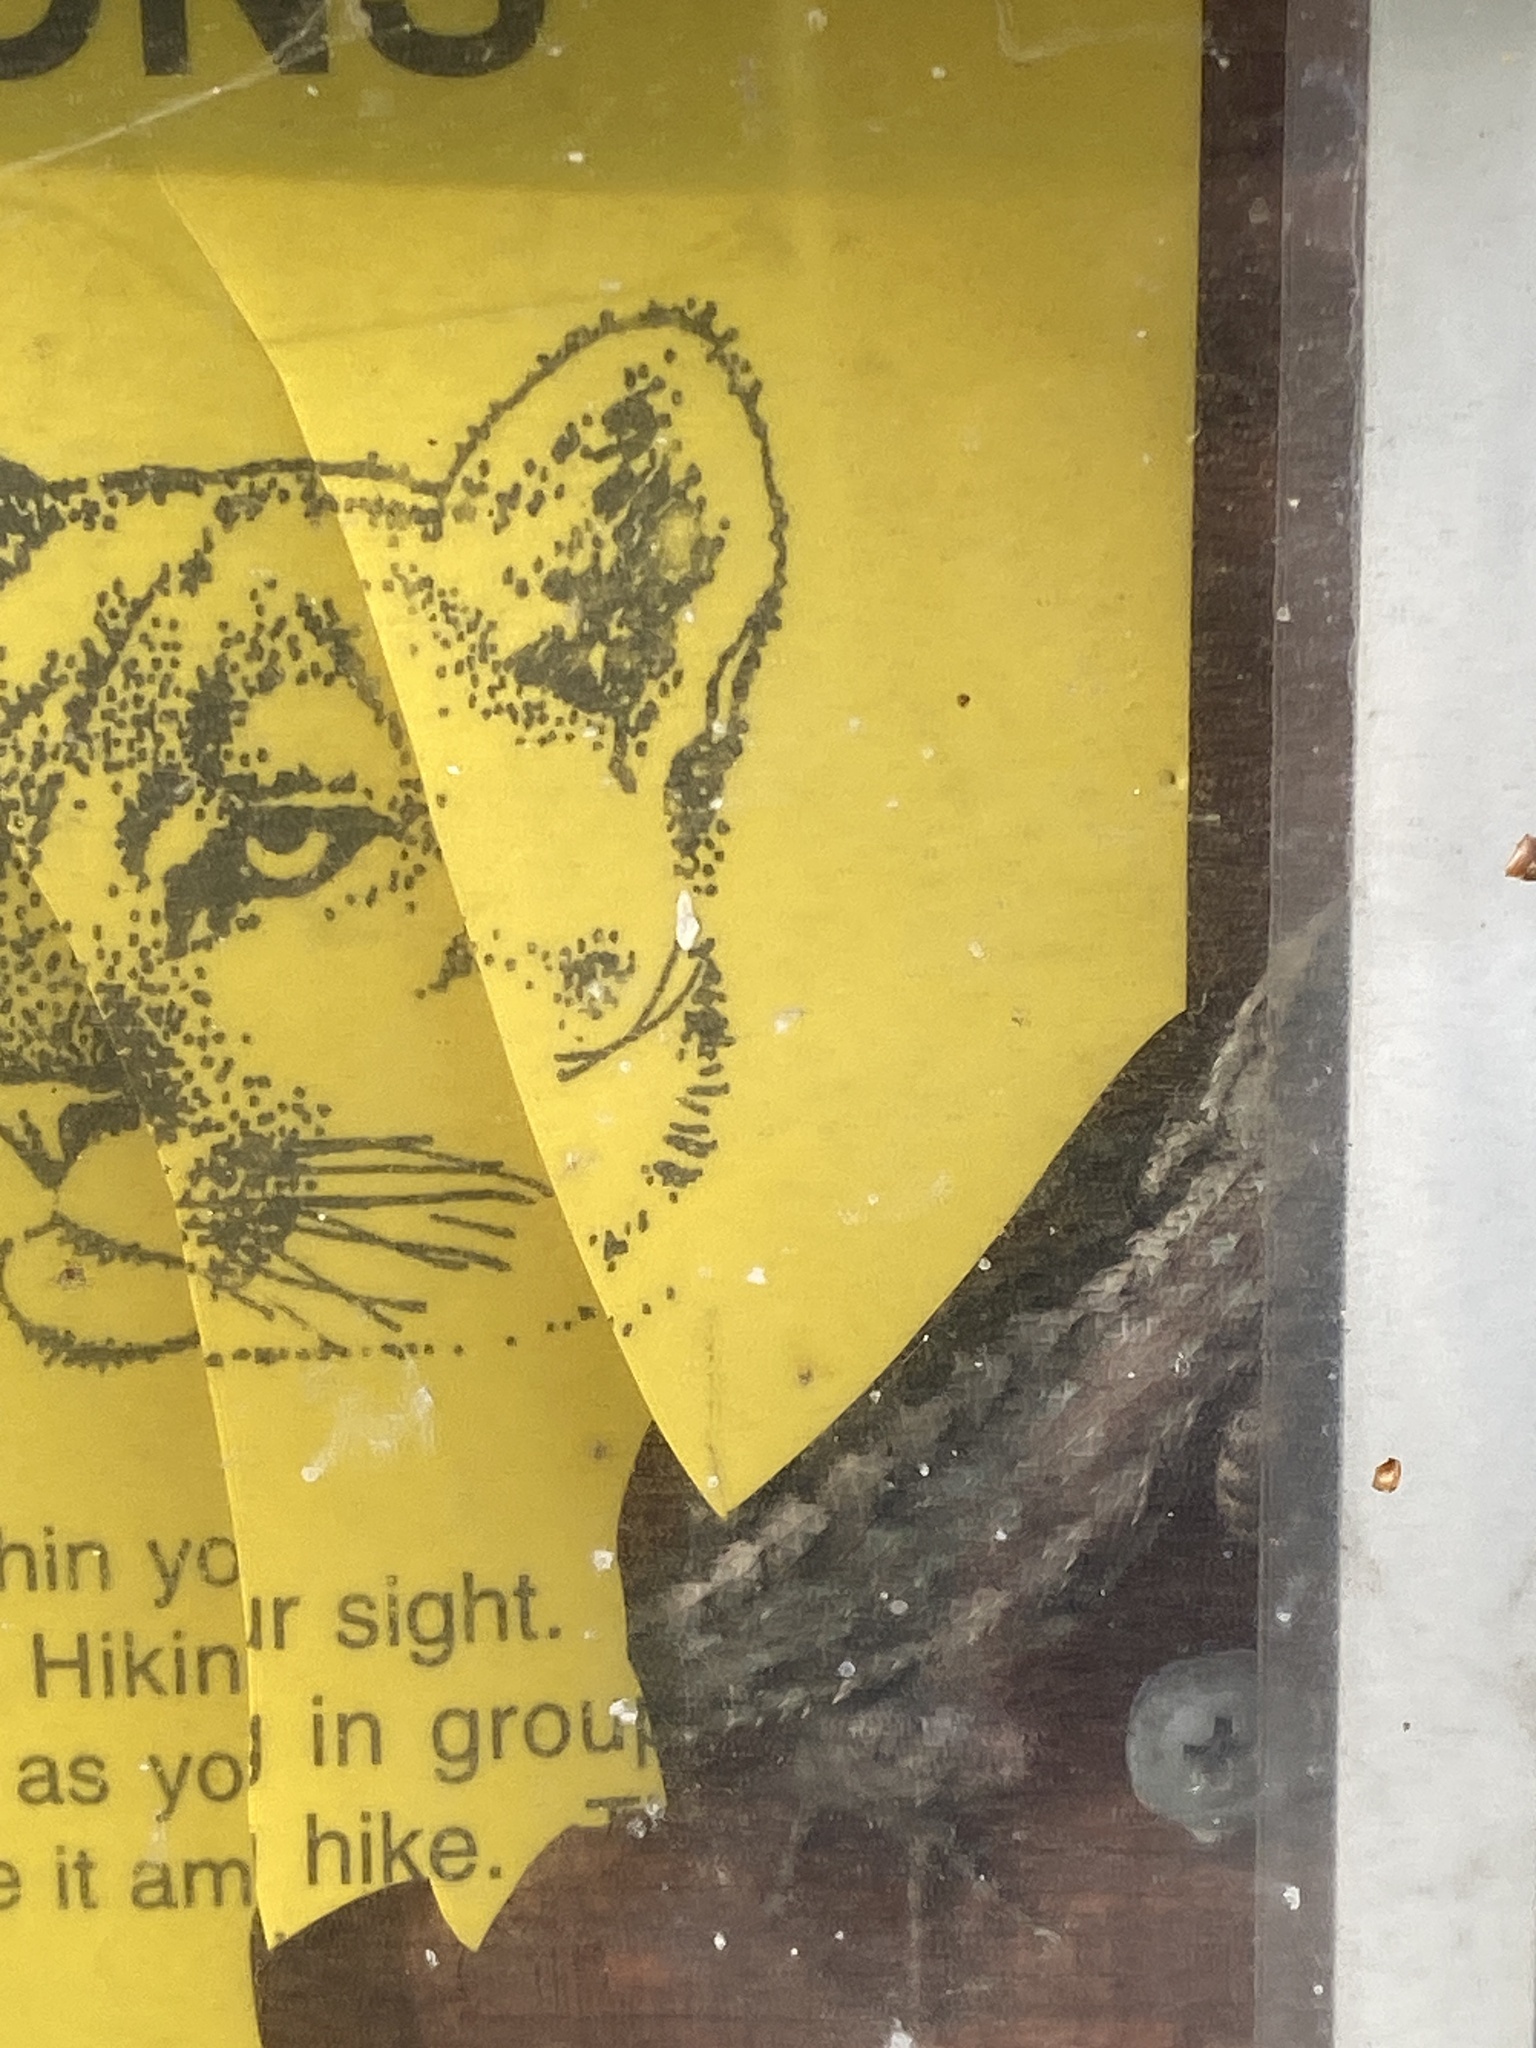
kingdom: Animalia
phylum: Chordata
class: Squamata
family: Phrynosomatidae
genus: Sceloporus
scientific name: Sceloporus occidentalis
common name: Western fence lizard
